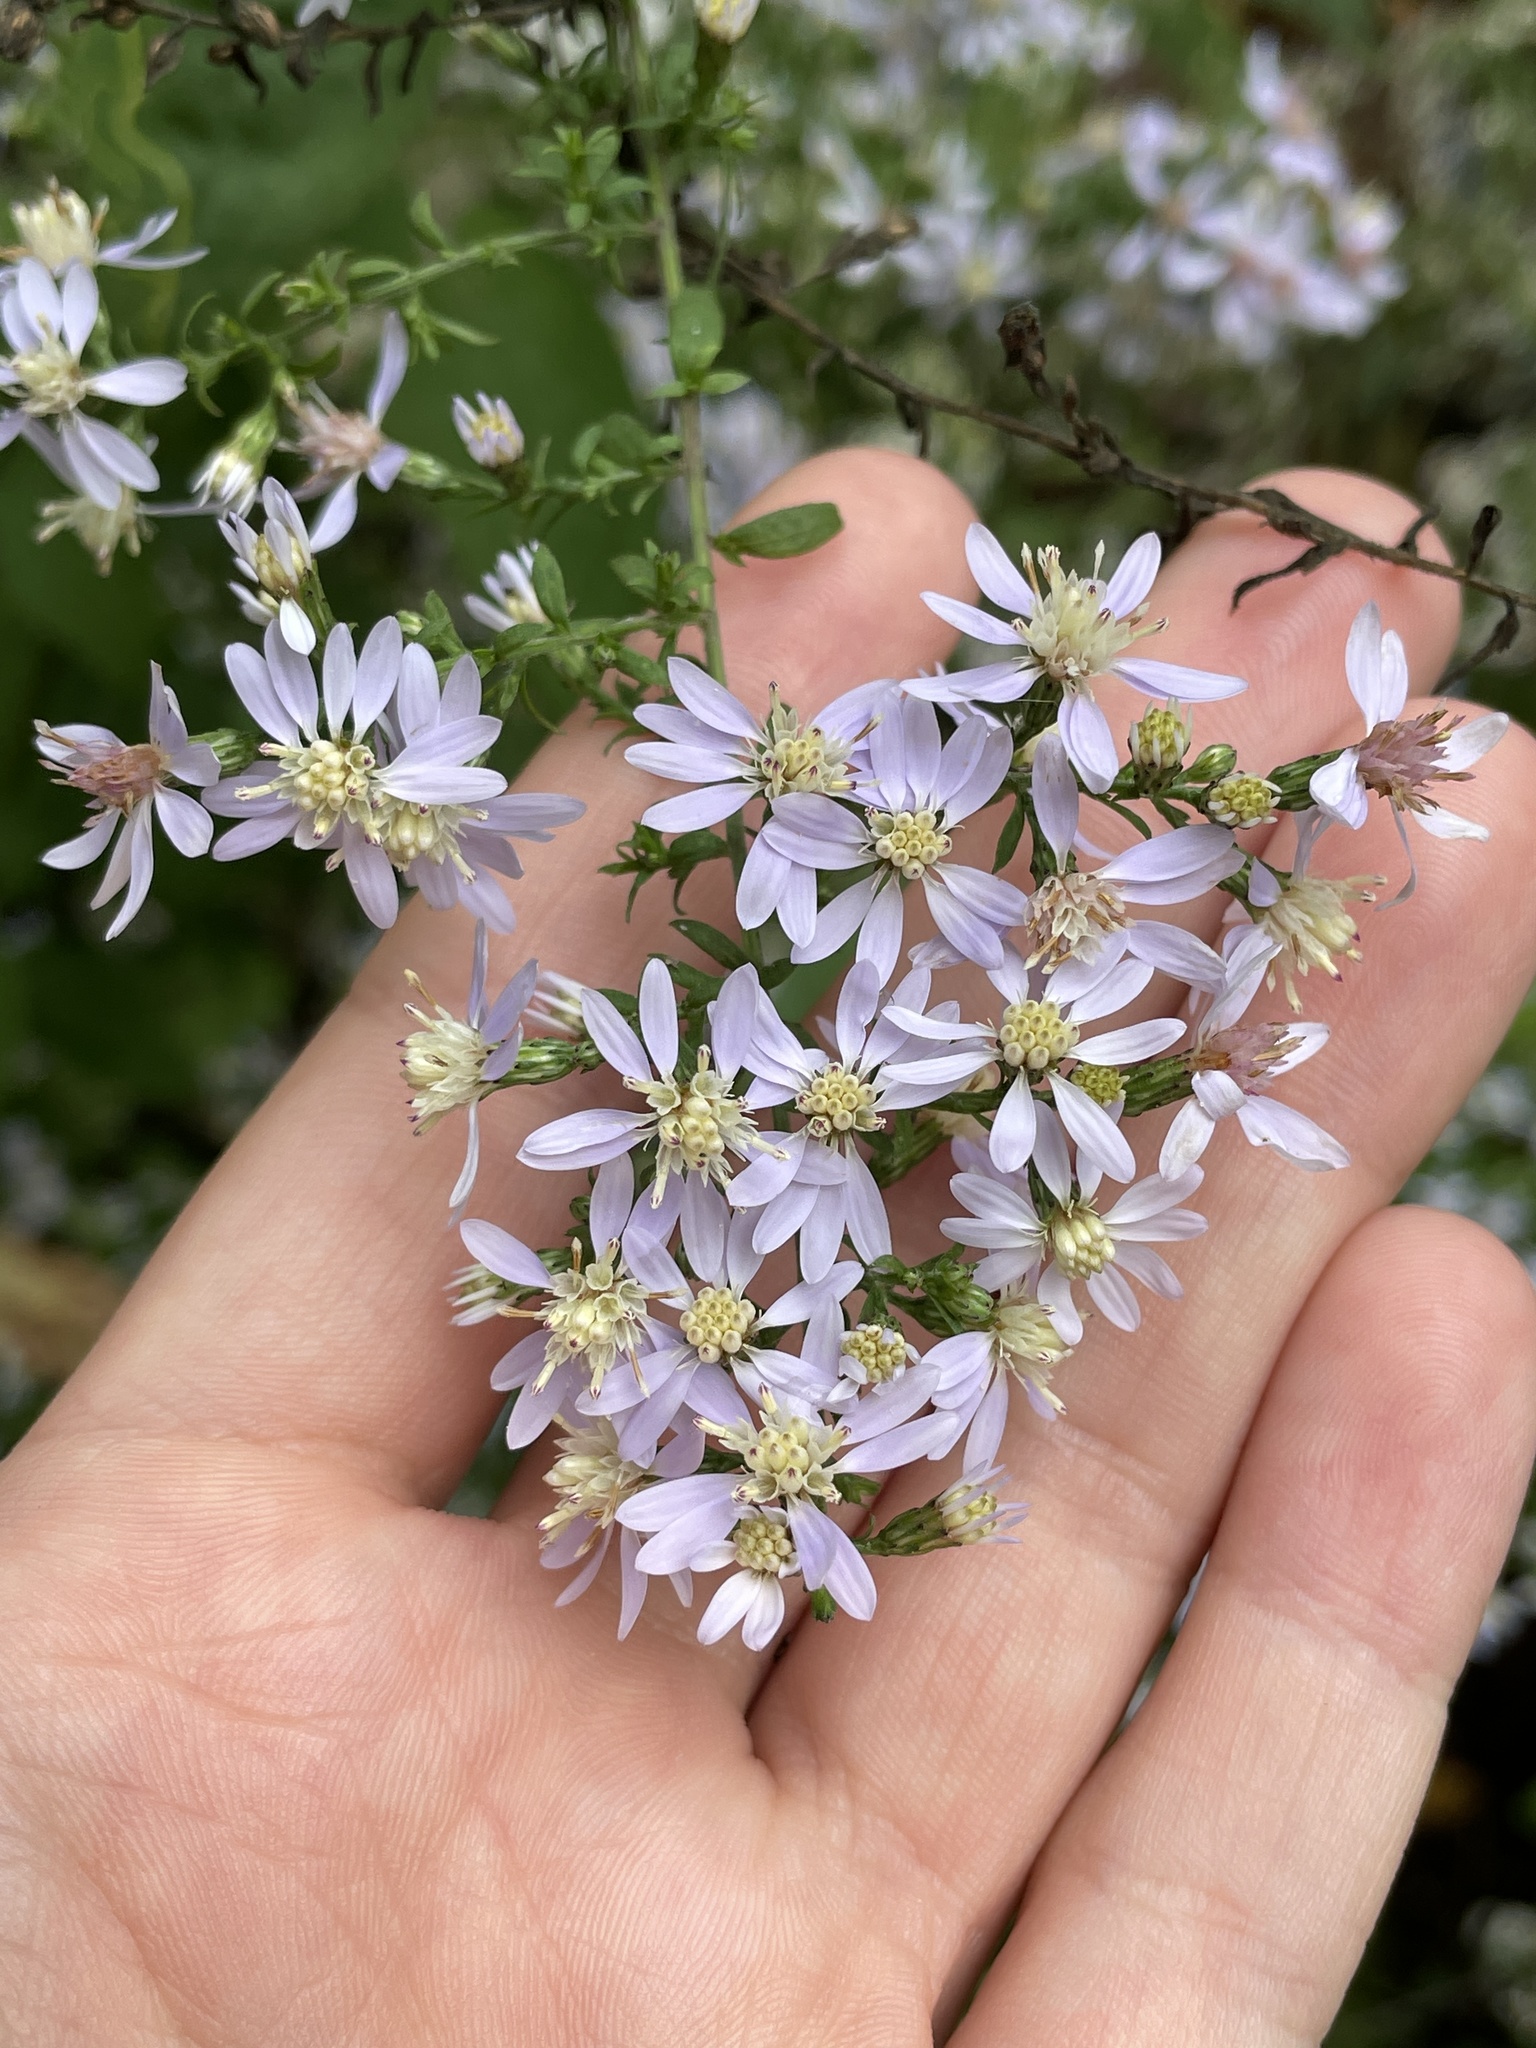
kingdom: Plantae
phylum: Tracheophyta
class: Magnoliopsida
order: Asterales
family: Asteraceae
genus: Symphyotrichum
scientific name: Symphyotrichum cordifolium
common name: Beeweed
